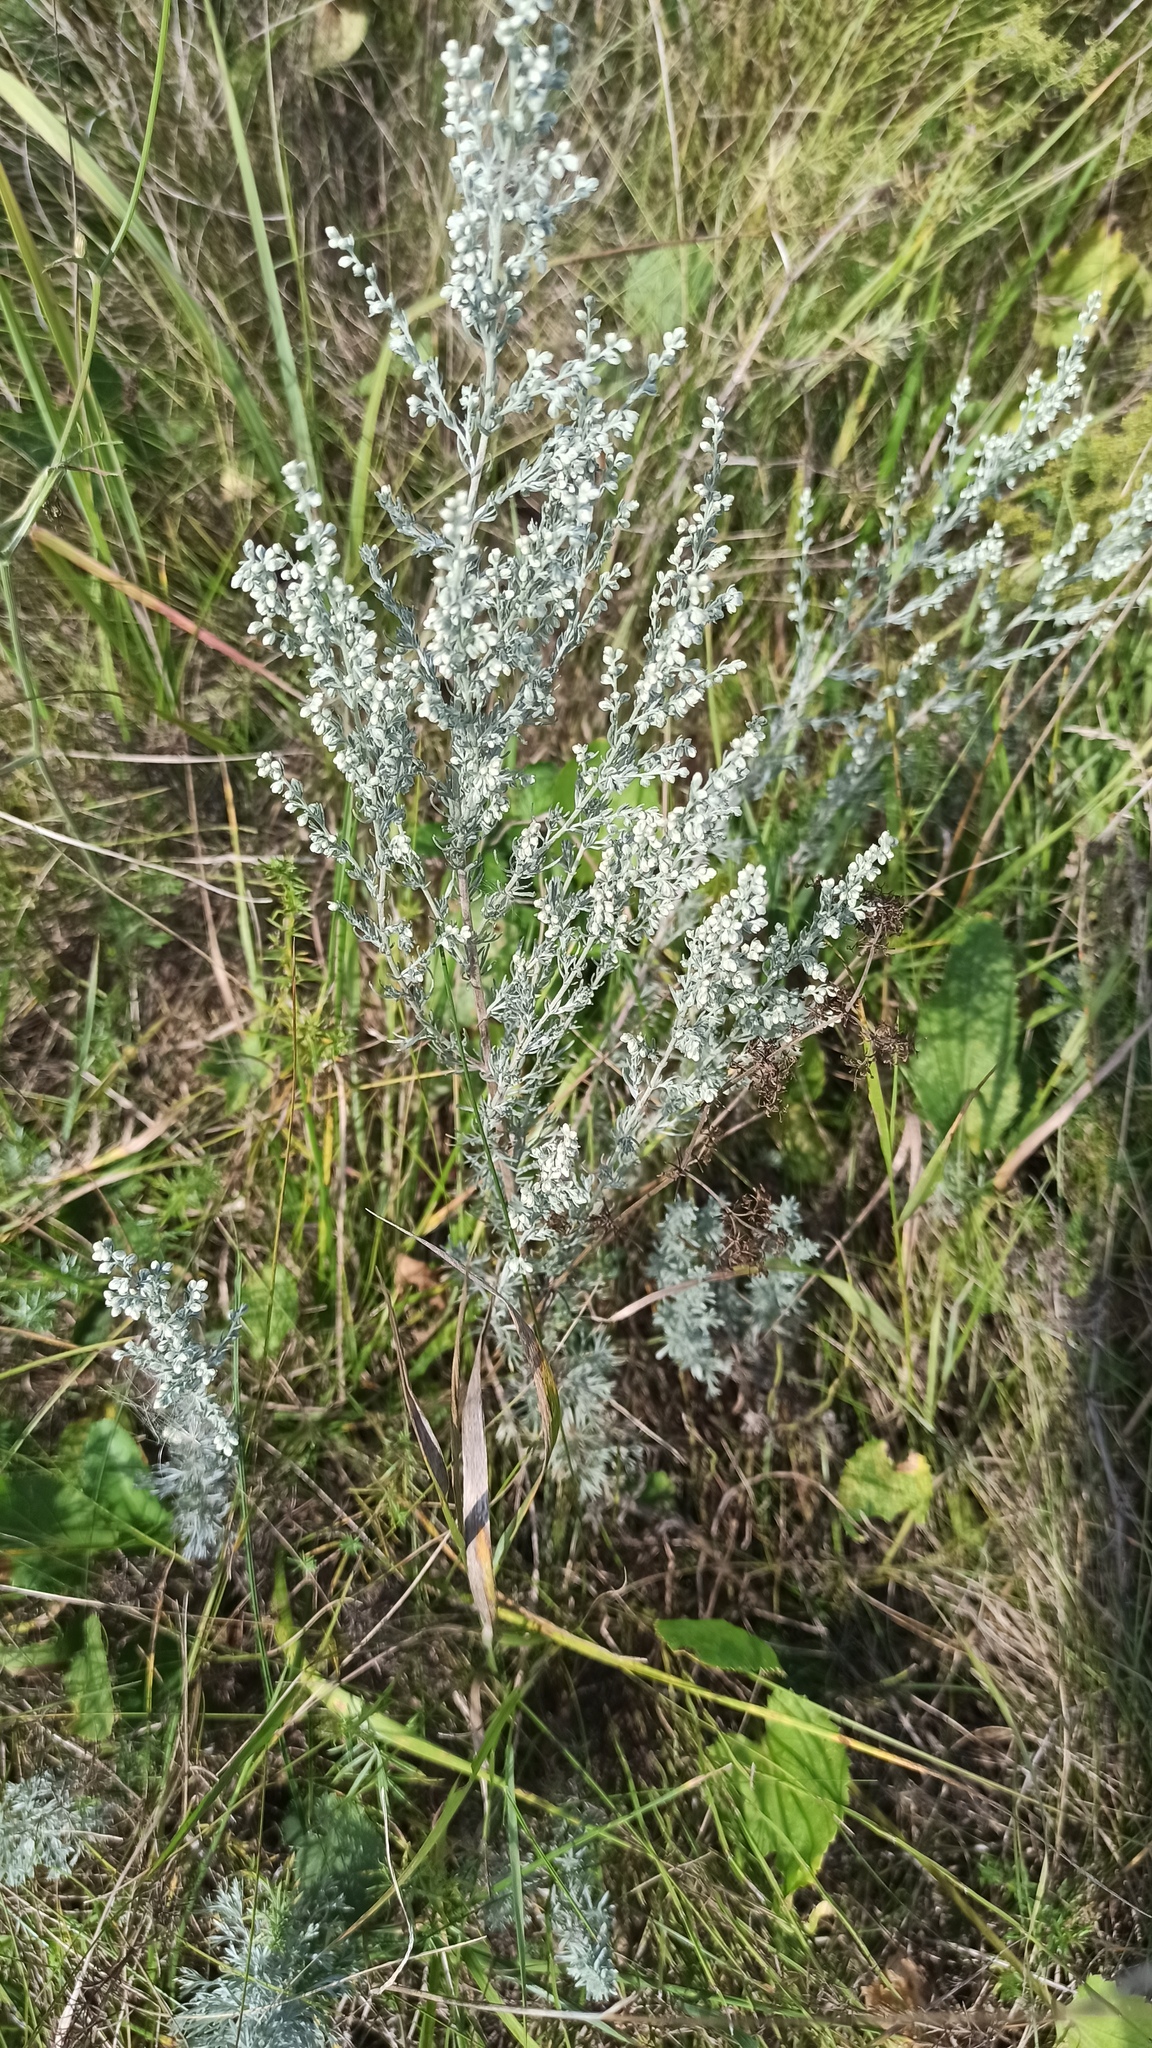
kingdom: Plantae
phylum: Tracheophyta
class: Magnoliopsida
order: Asterales
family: Asteraceae
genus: Artemisia
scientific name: Artemisia austriaca
